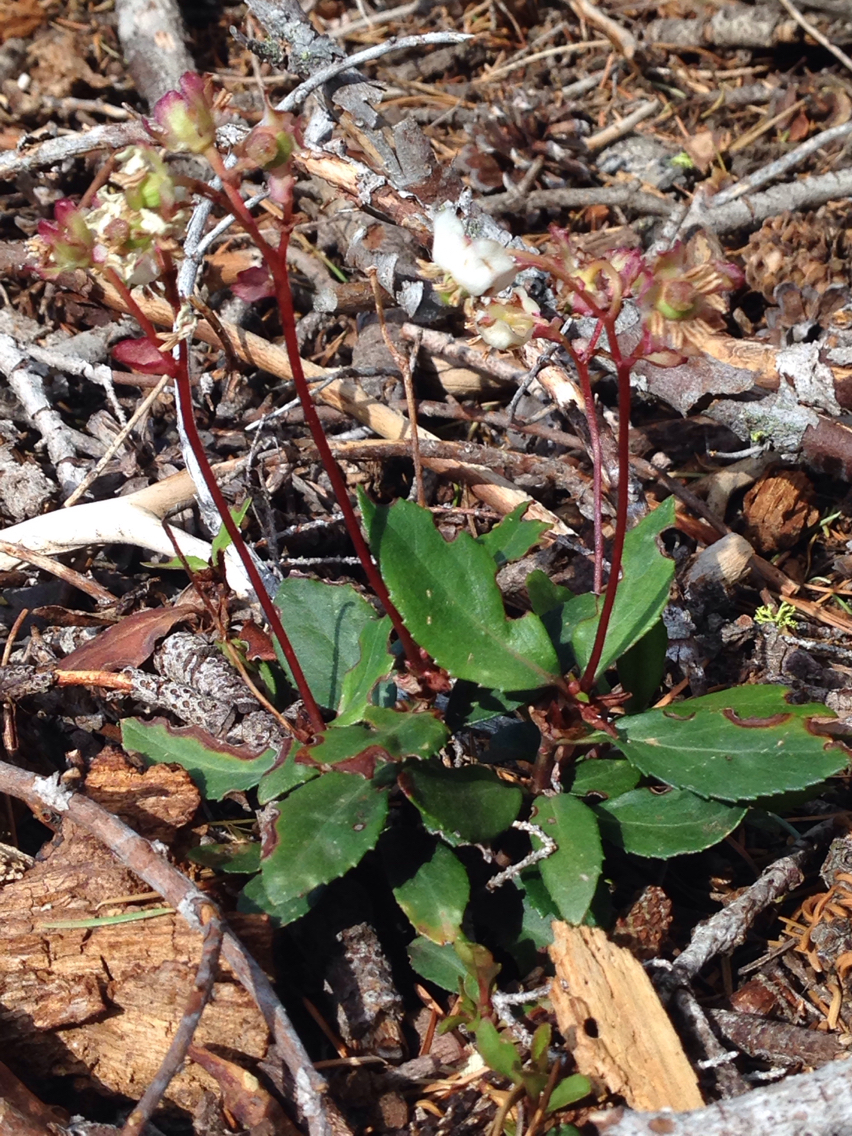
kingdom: Plantae
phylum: Tracheophyta
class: Magnoliopsida
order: Ericales
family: Ericaceae
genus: Chimaphila
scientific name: Chimaphila umbellata
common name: Pipsissewa
